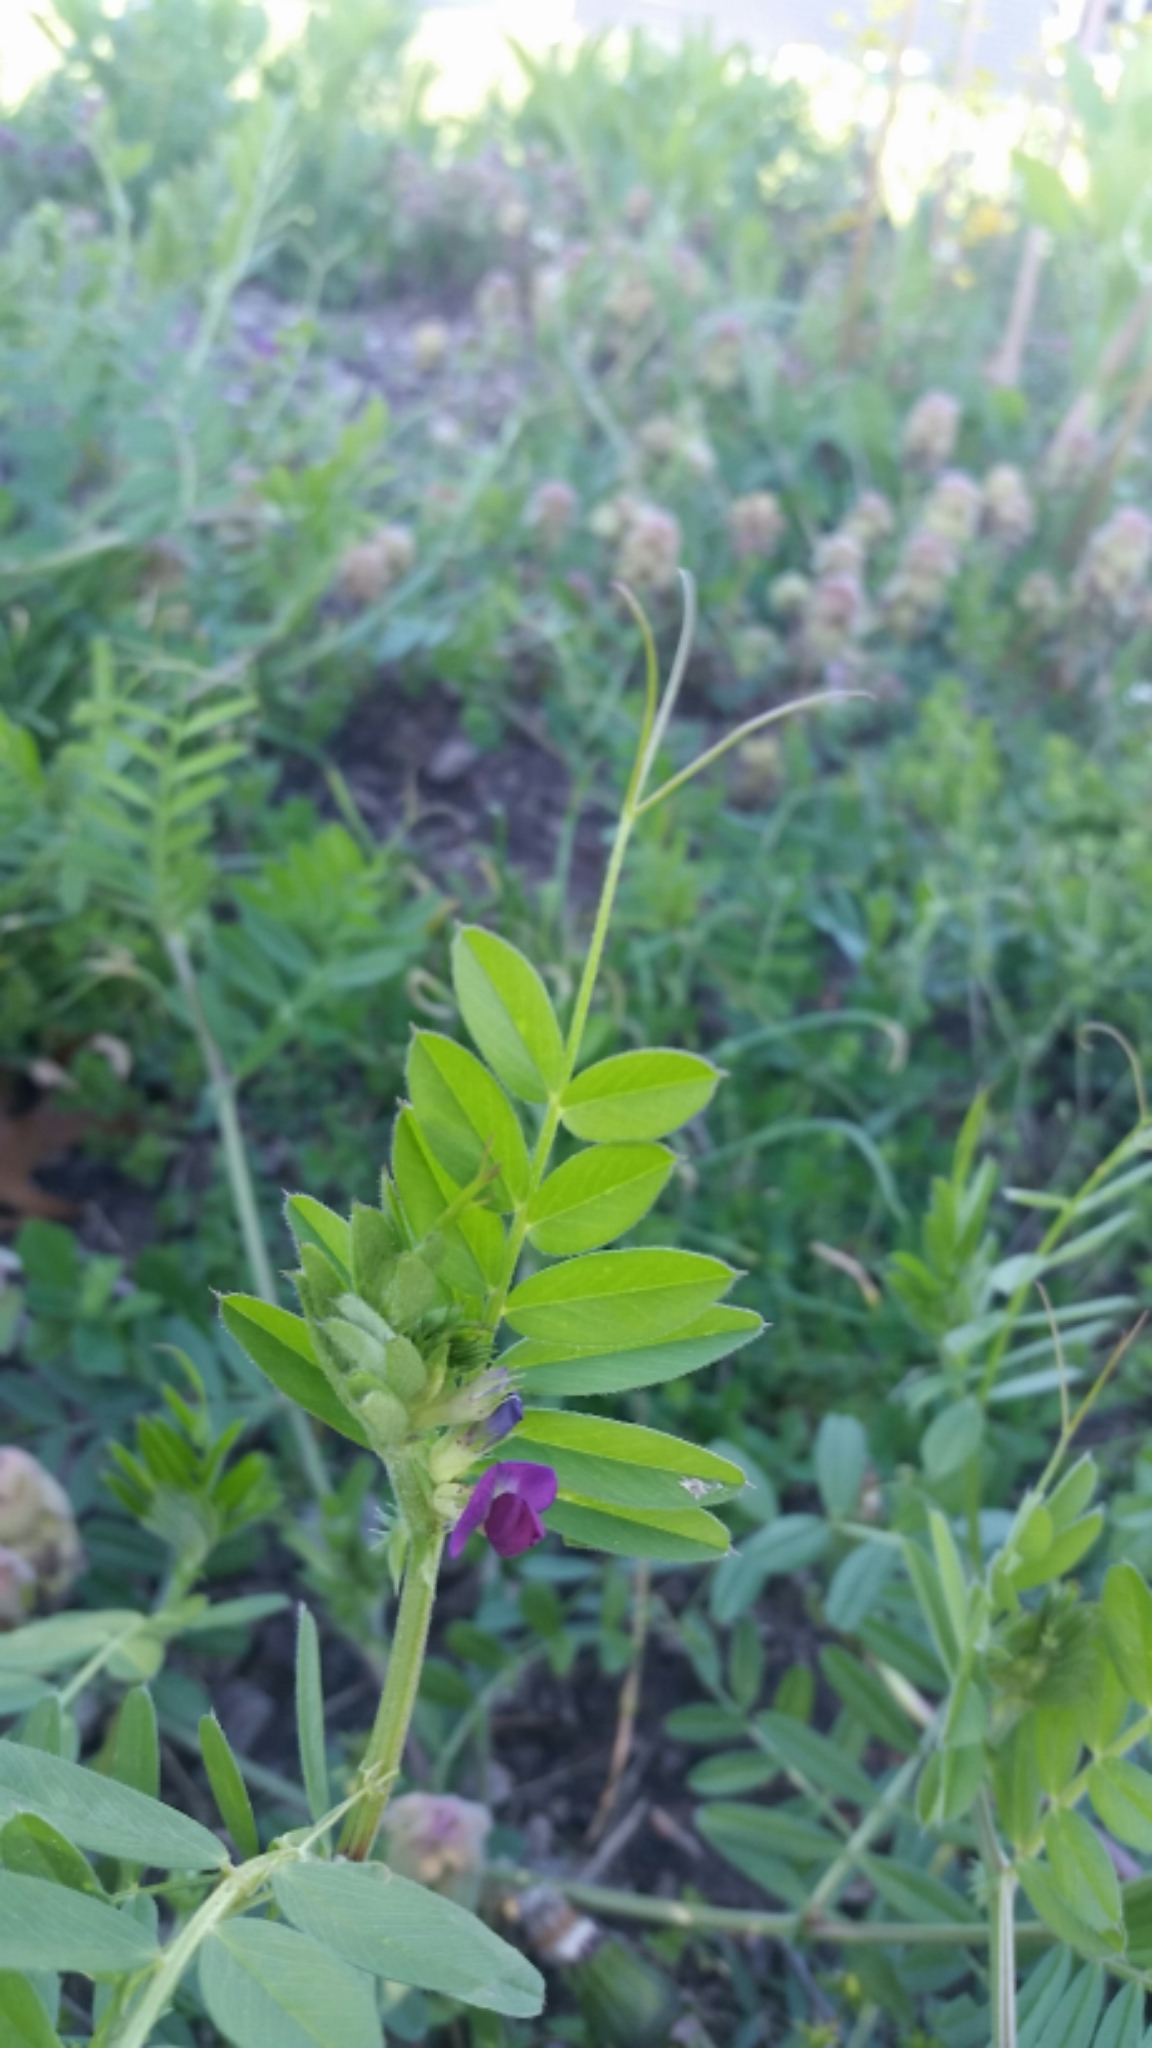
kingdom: Plantae
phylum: Tracheophyta
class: Magnoliopsida
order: Fabales
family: Fabaceae
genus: Vicia
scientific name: Vicia sativa
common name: Garden vetch
